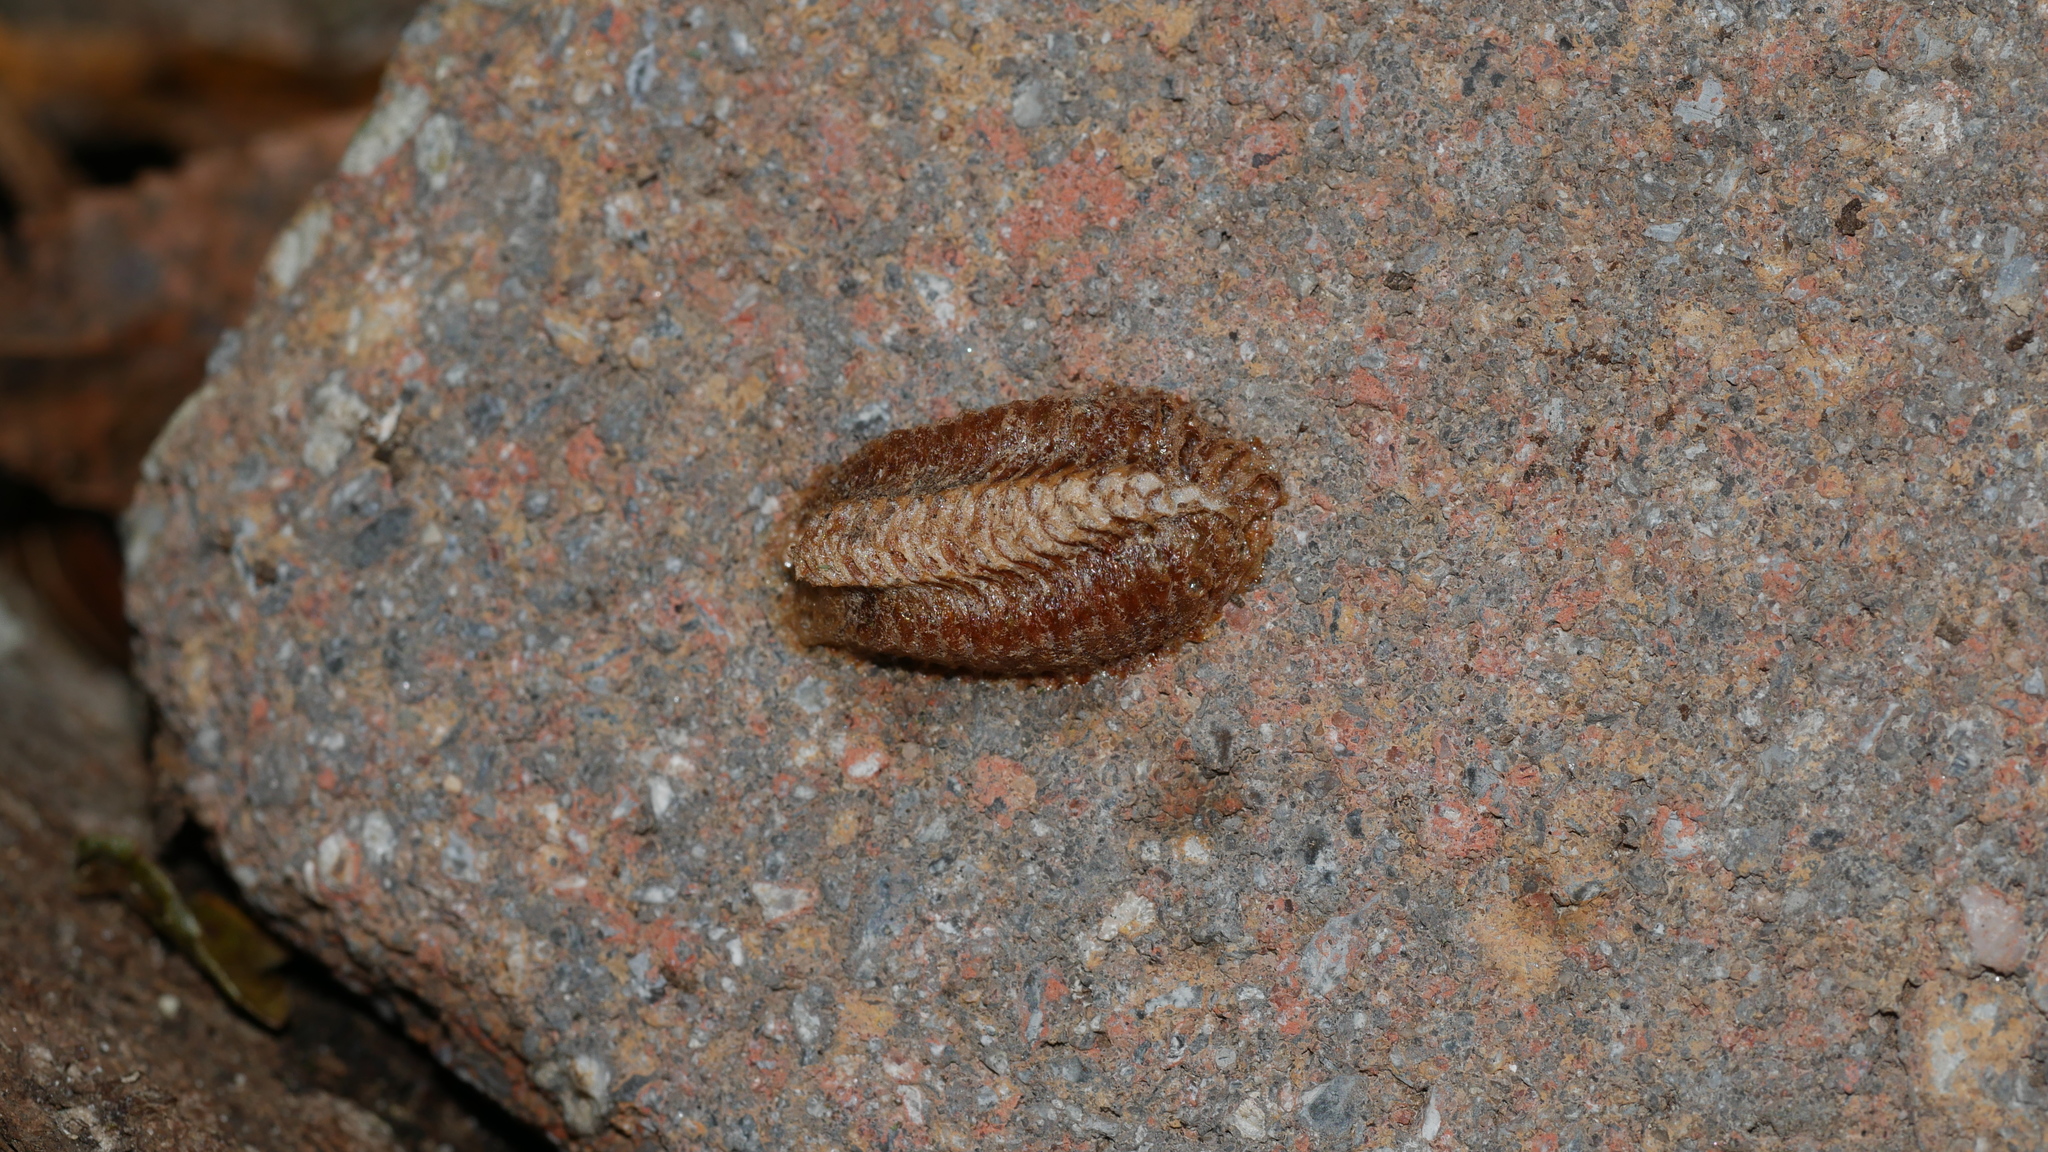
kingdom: Animalia
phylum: Arthropoda
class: Insecta
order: Mantodea
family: Mantidae
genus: Stagmomantis
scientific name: Stagmomantis carolina
